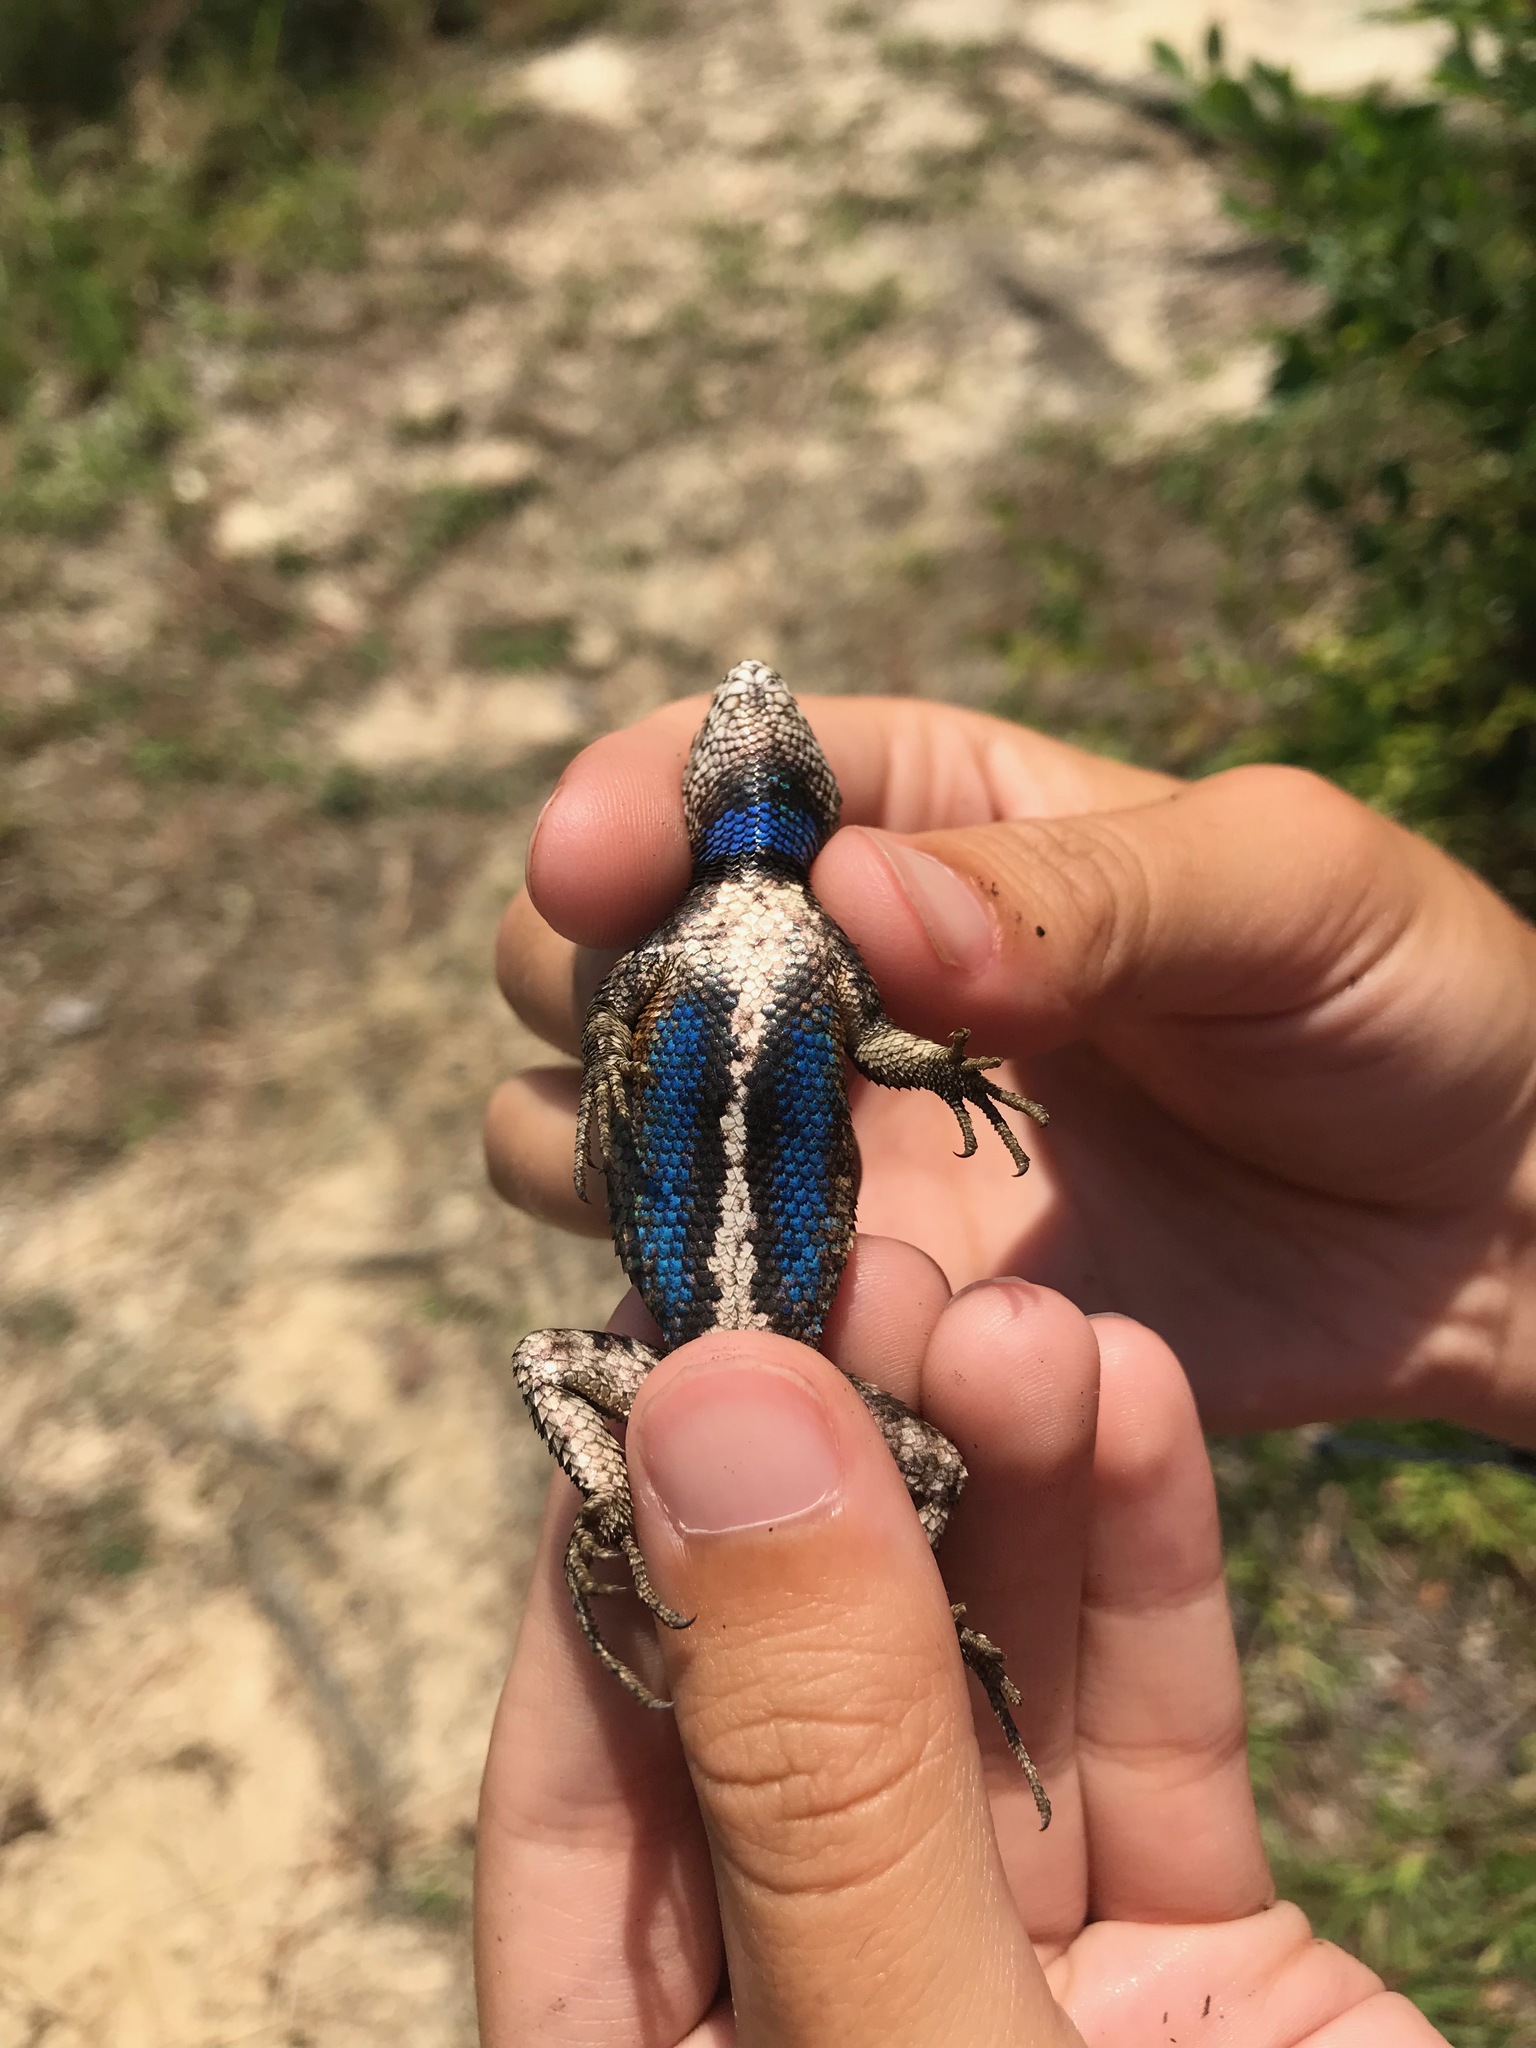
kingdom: Animalia
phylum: Chordata
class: Squamata
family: Phrynosomatidae
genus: Sceloporus
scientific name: Sceloporus consobrinus
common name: Southern prairie lizard
